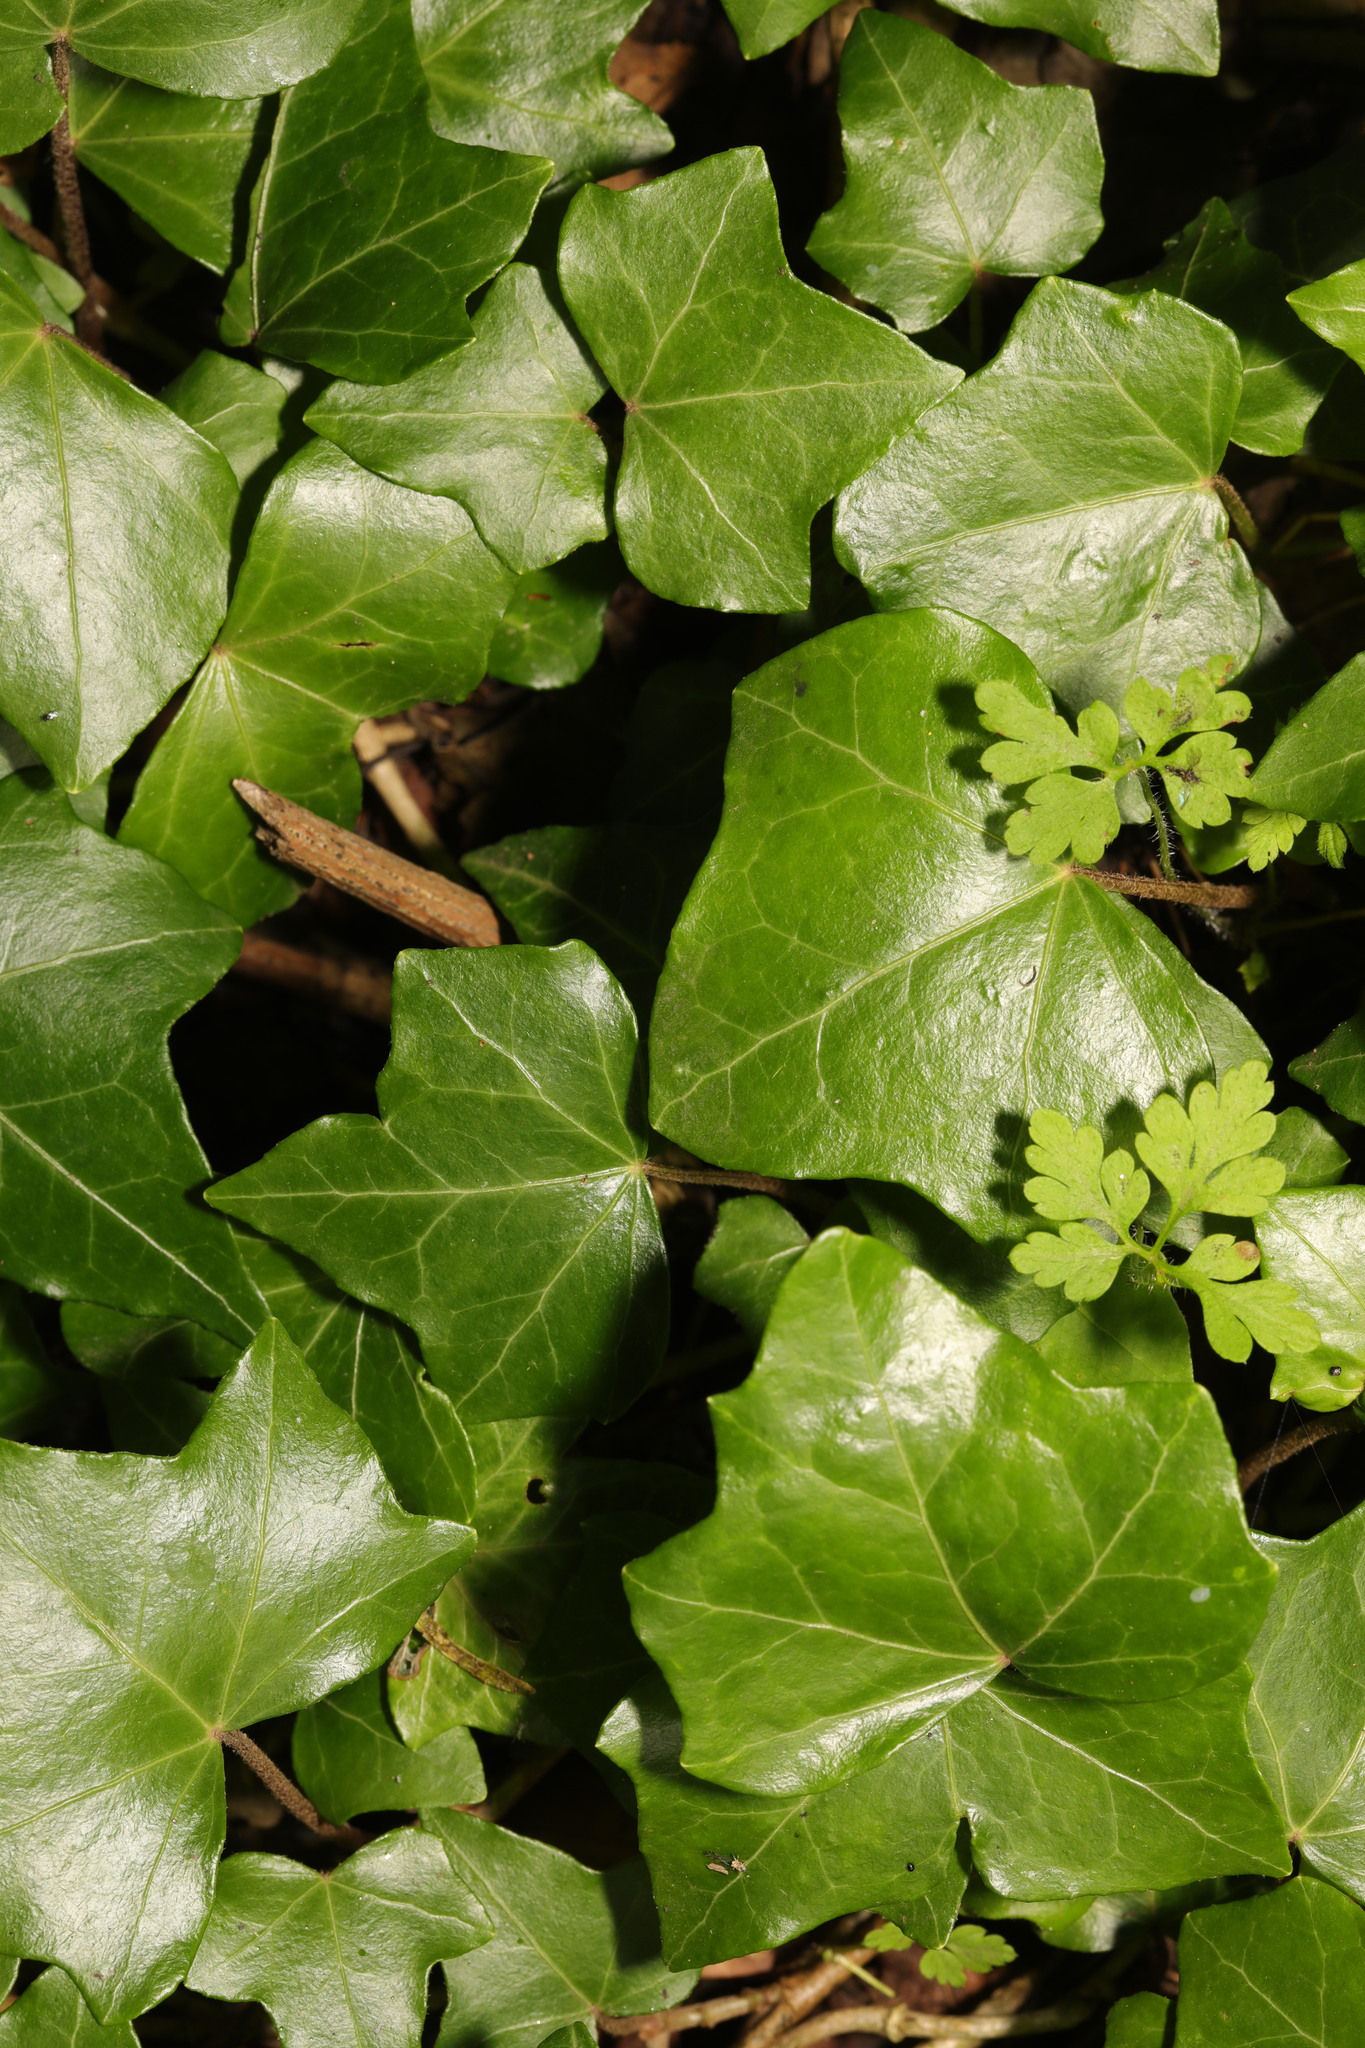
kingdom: Plantae
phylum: Tracheophyta
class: Magnoliopsida
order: Apiales
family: Araliaceae
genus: Hedera
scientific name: Hedera helix
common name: Ivy
